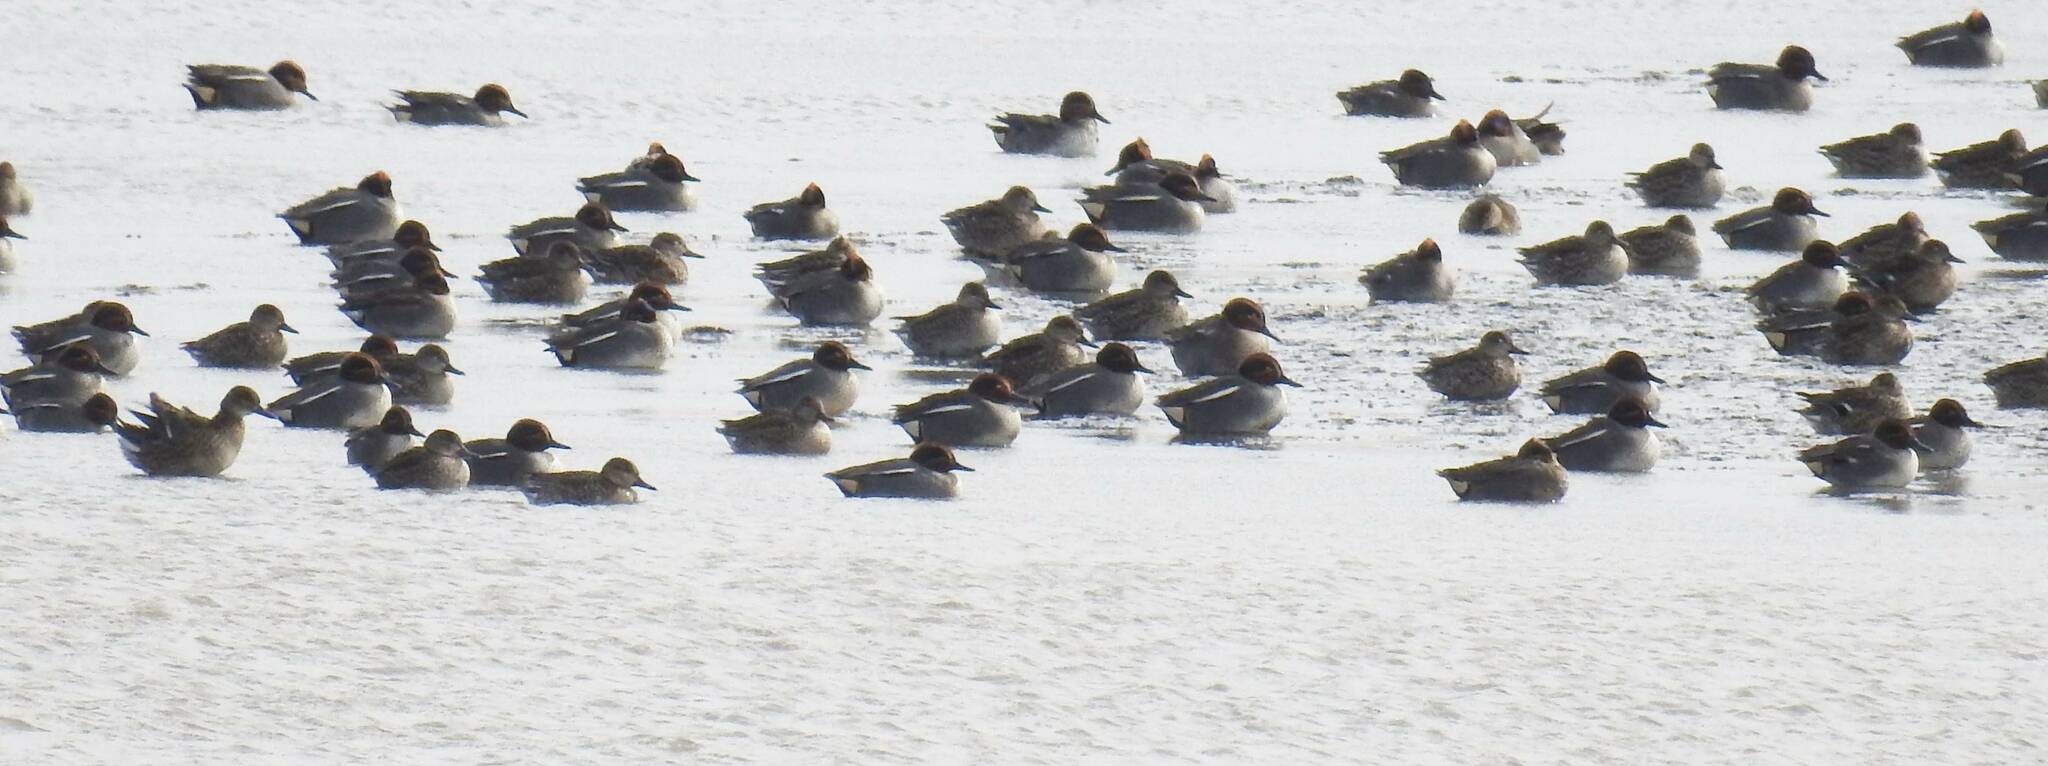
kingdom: Animalia
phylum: Chordata
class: Aves
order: Anseriformes
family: Anatidae
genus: Anas
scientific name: Anas crecca
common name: Eurasian teal
